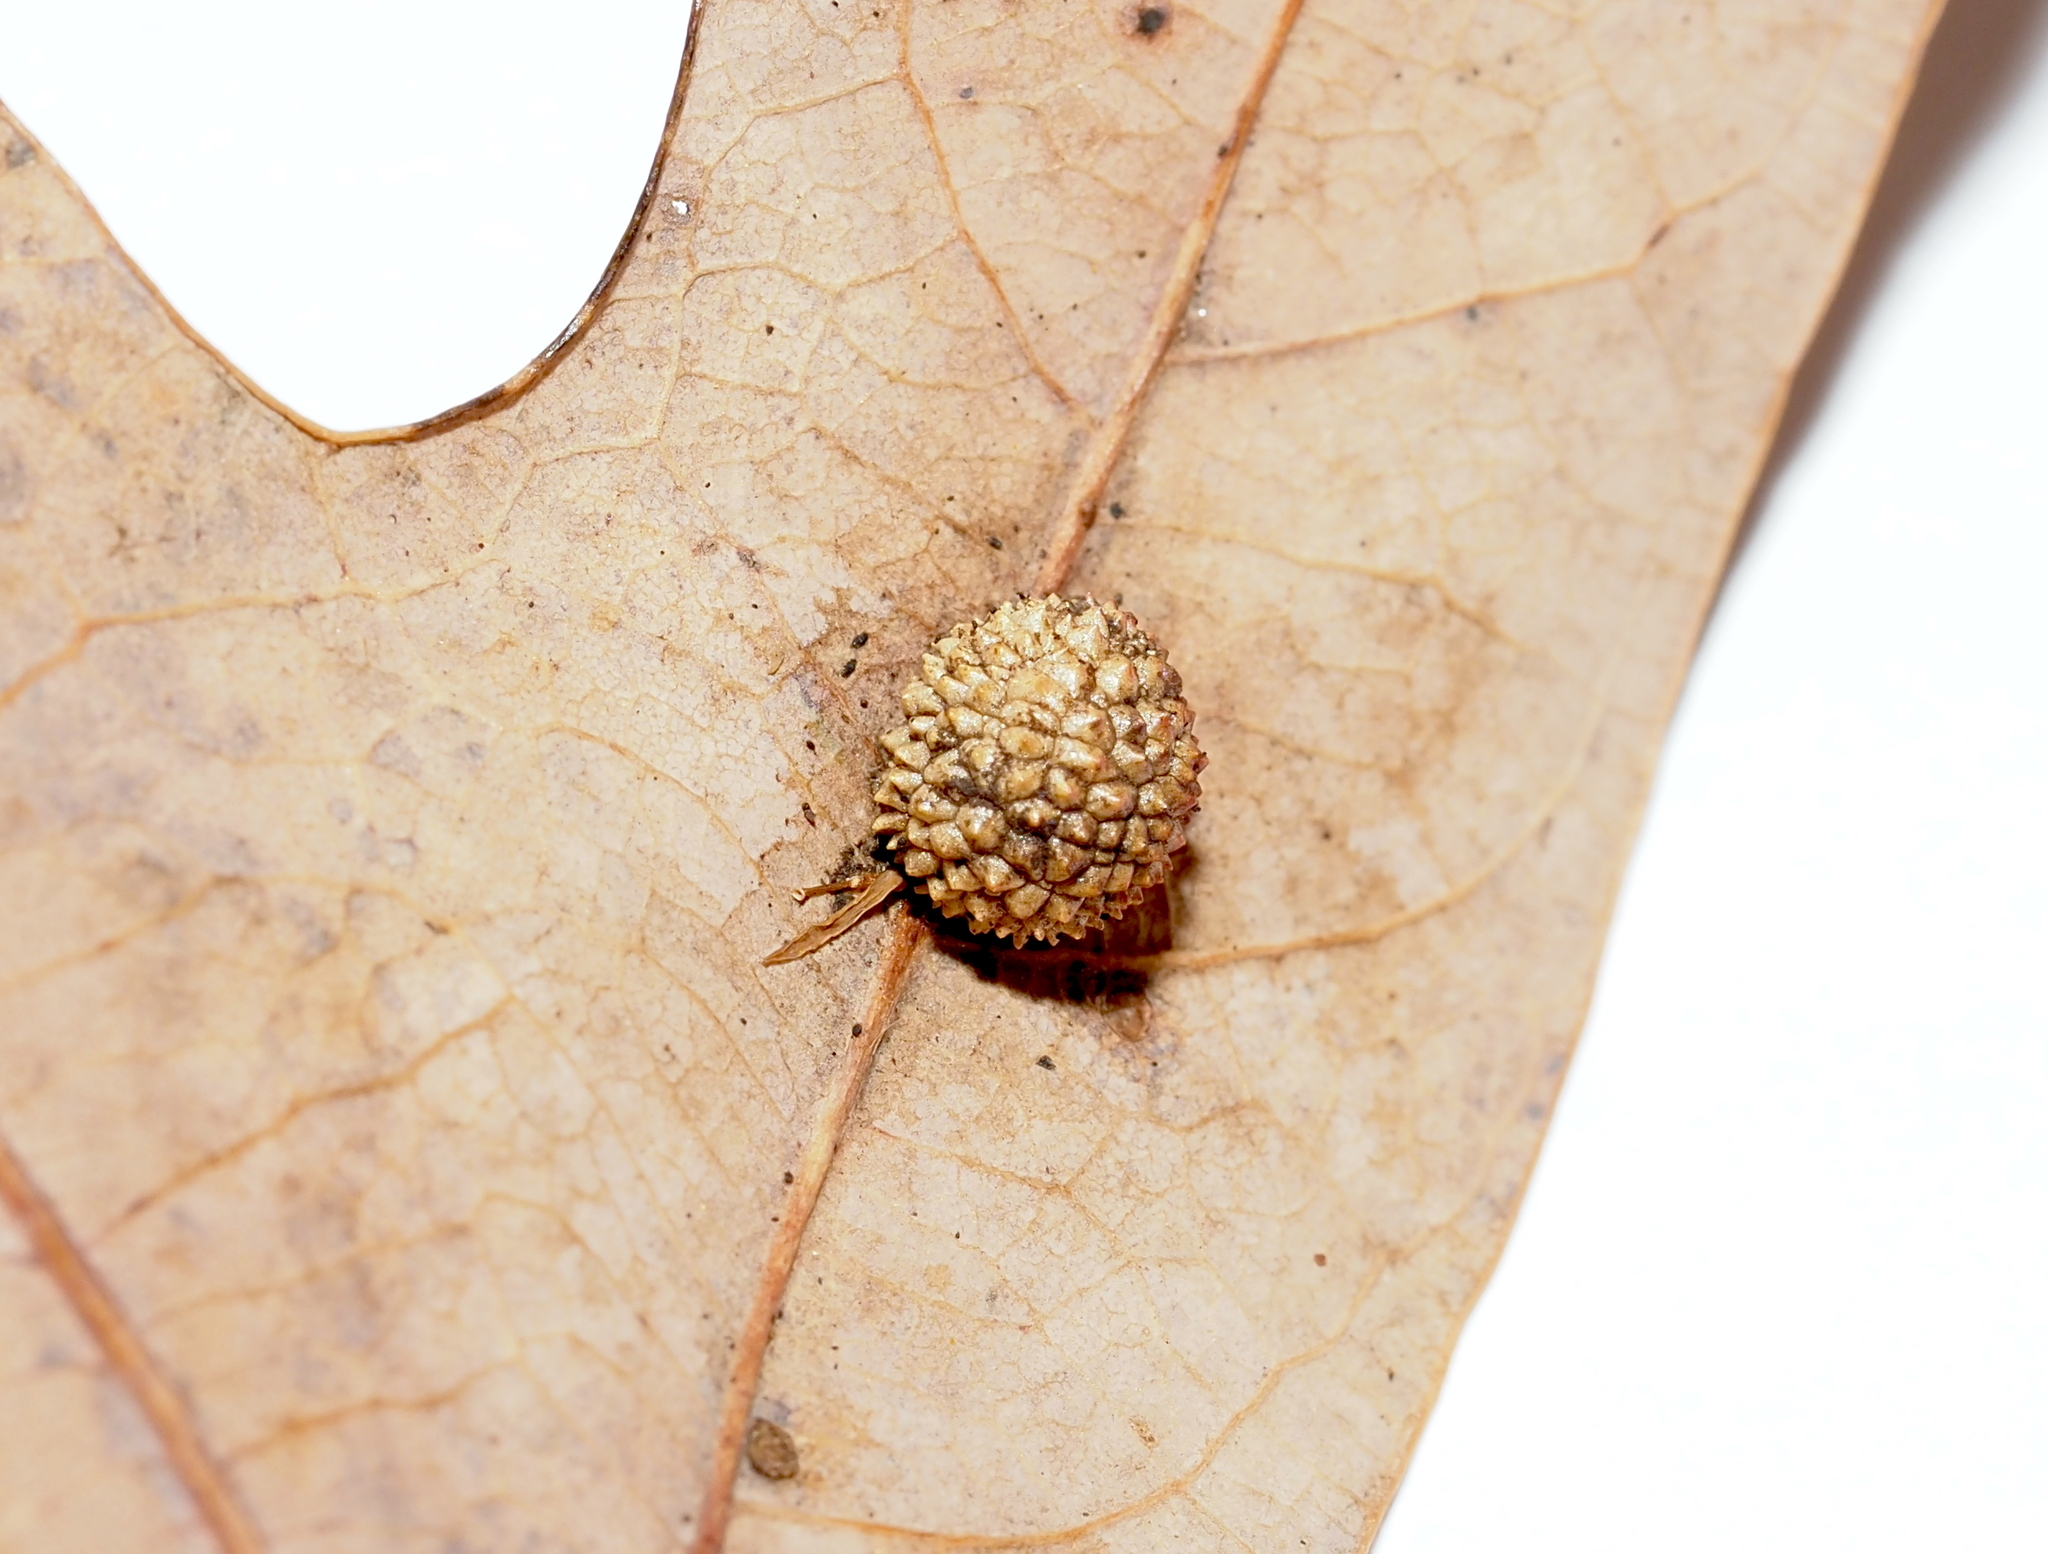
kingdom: Animalia
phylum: Arthropoda
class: Insecta
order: Hymenoptera
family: Cynipidae
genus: Acraspis
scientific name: Acraspis
